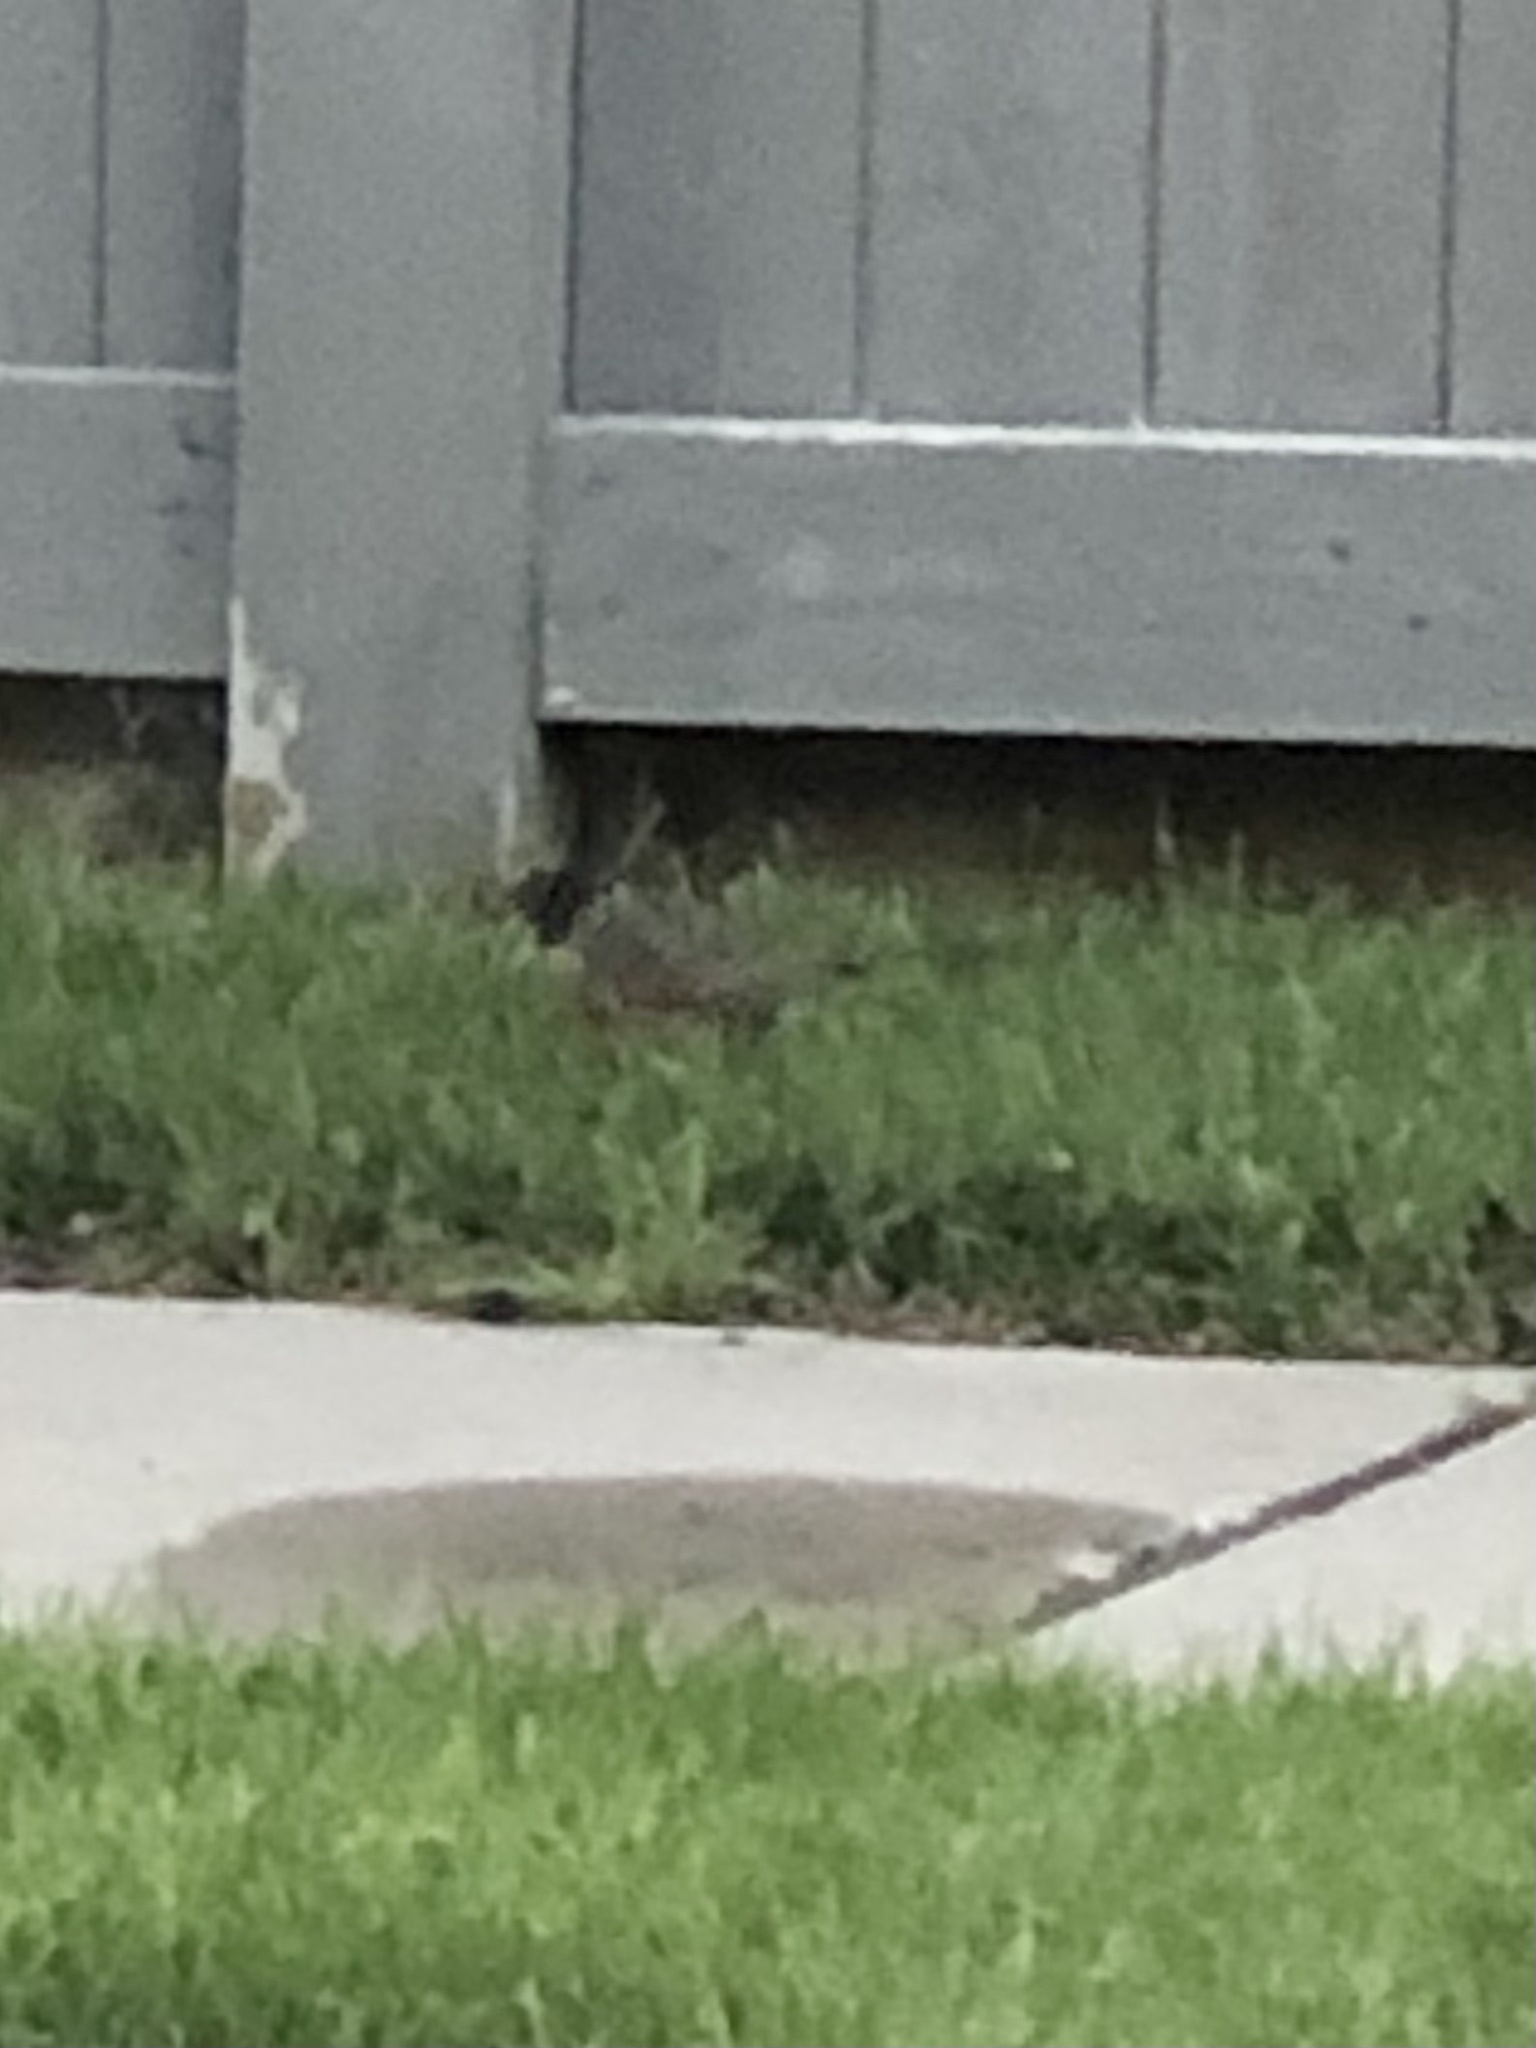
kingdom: Animalia
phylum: Chordata
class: Aves
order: Passeriformes
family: Turdidae
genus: Turdus
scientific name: Turdus migratorius
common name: American robin
